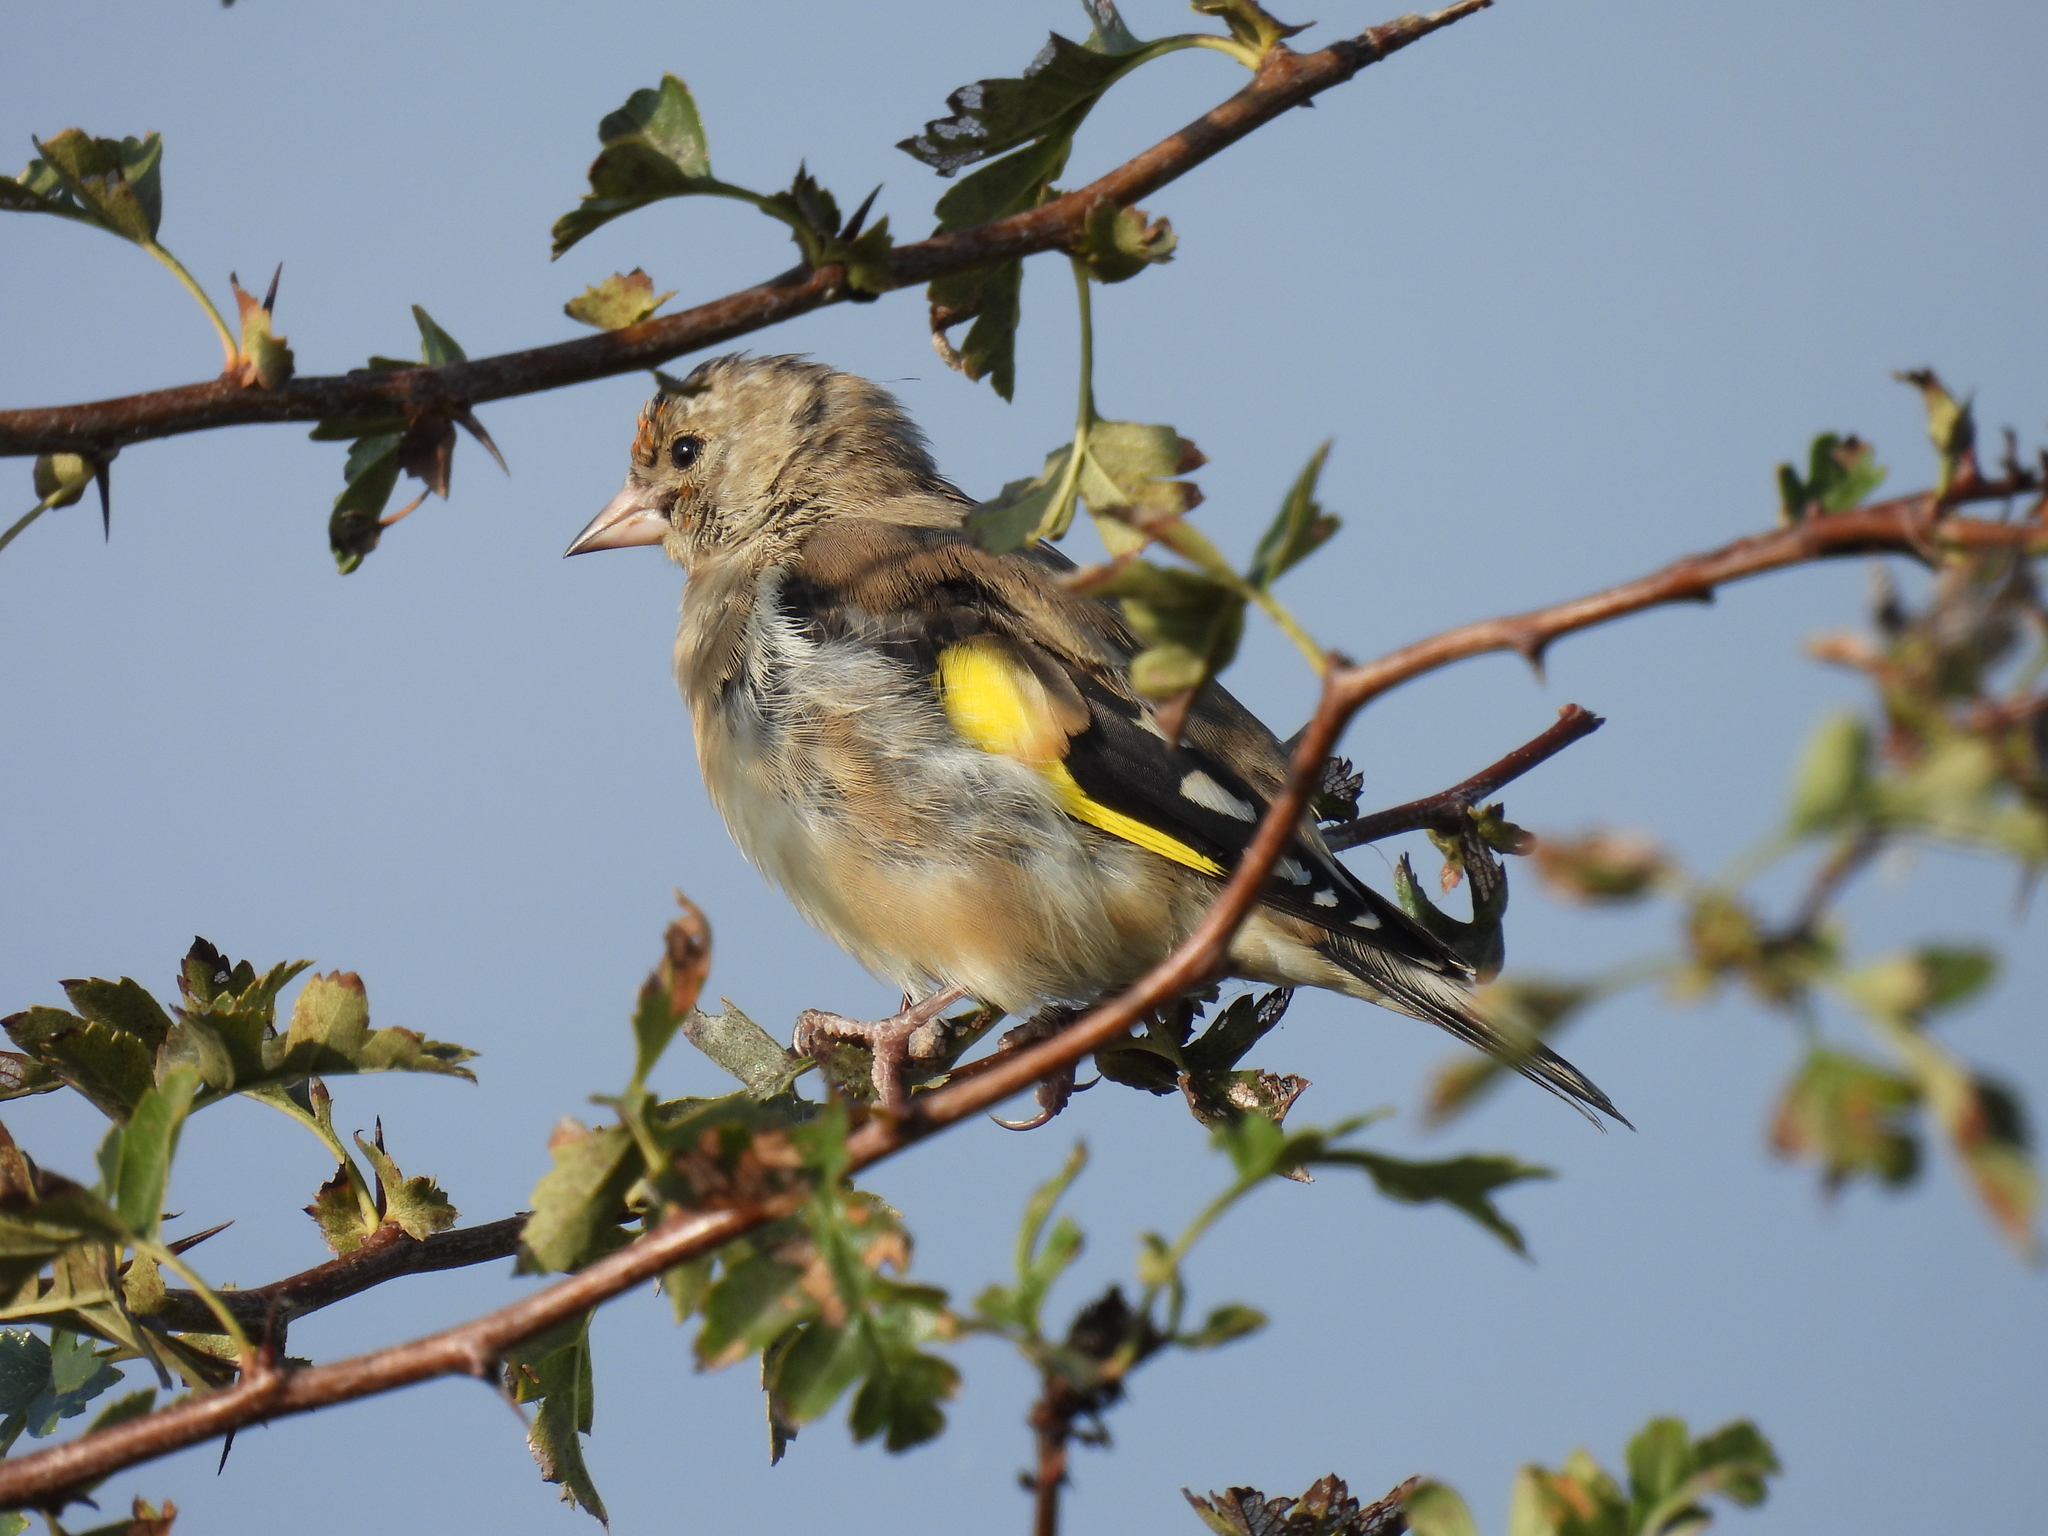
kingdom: Animalia
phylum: Chordata
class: Aves
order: Passeriformes
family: Fringillidae
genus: Carduelis
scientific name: Carduelis carduelis
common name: European goldfinch
